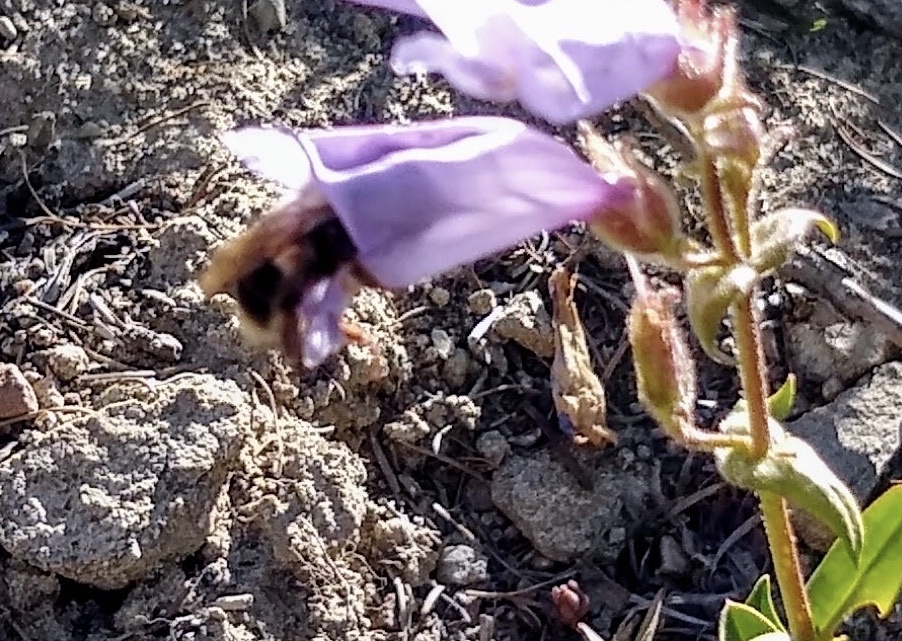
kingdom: Animalia
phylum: Arthropoda
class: Insecta
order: Hymenoptera
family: Apidae
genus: Bombus
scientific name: Bombus vancouverensis
